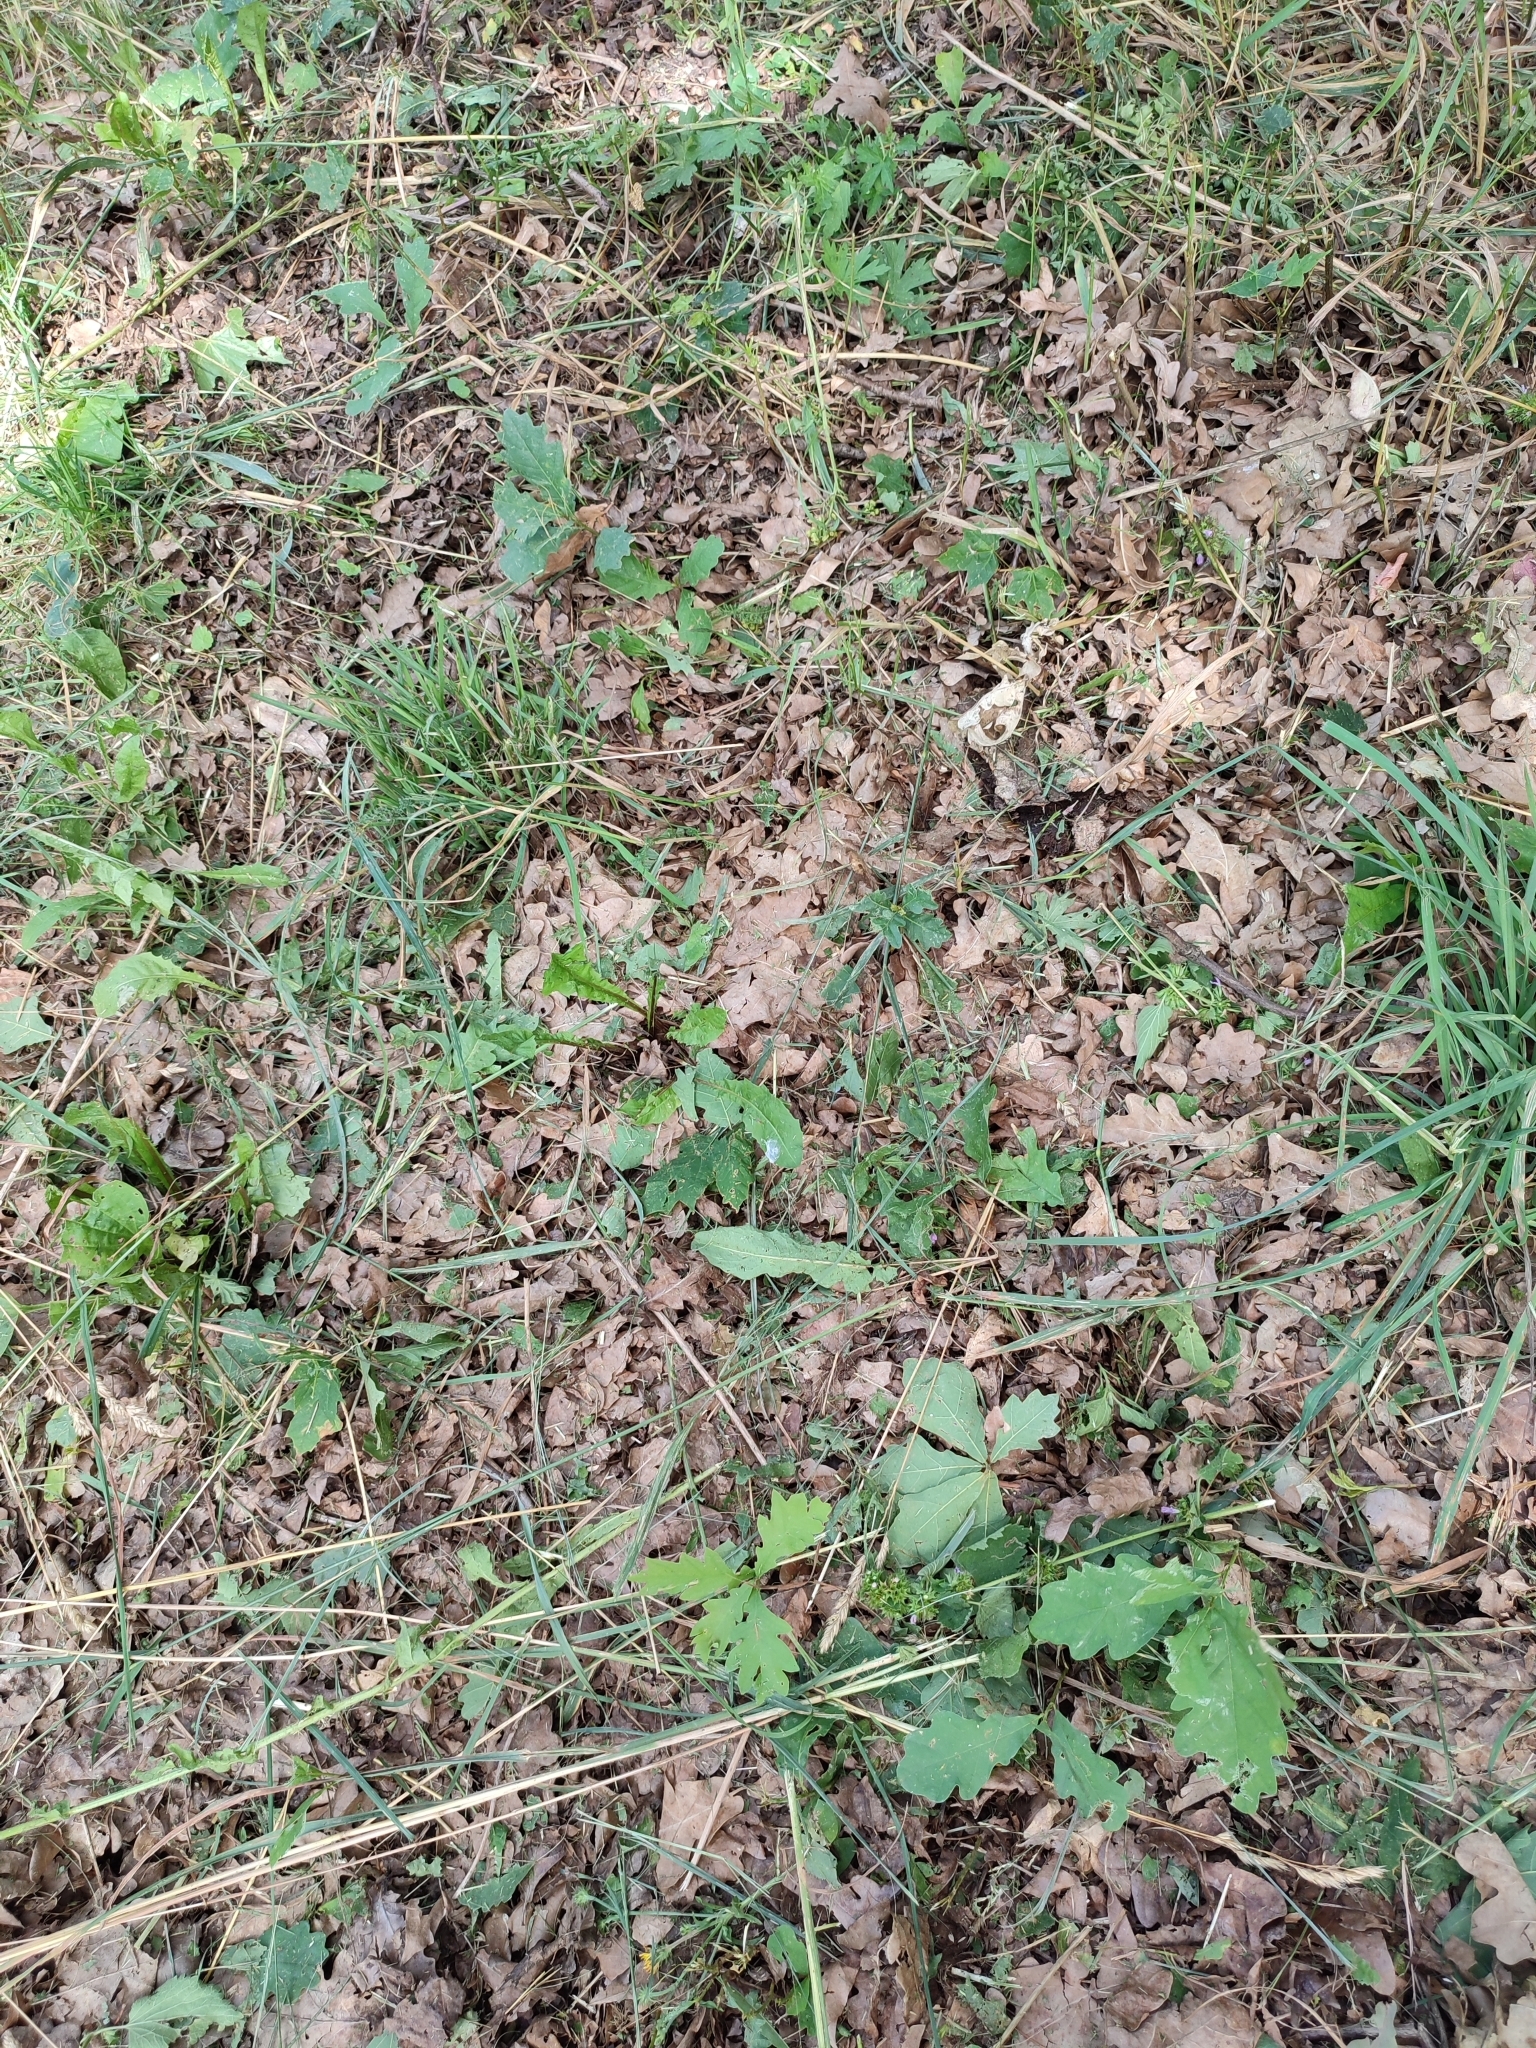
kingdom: Plantae
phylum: Tracheophyta
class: Magnoliopsida
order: Fagales
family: Fagaceae
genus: Quercus
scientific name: Quercus robur
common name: Pedunculate oak
